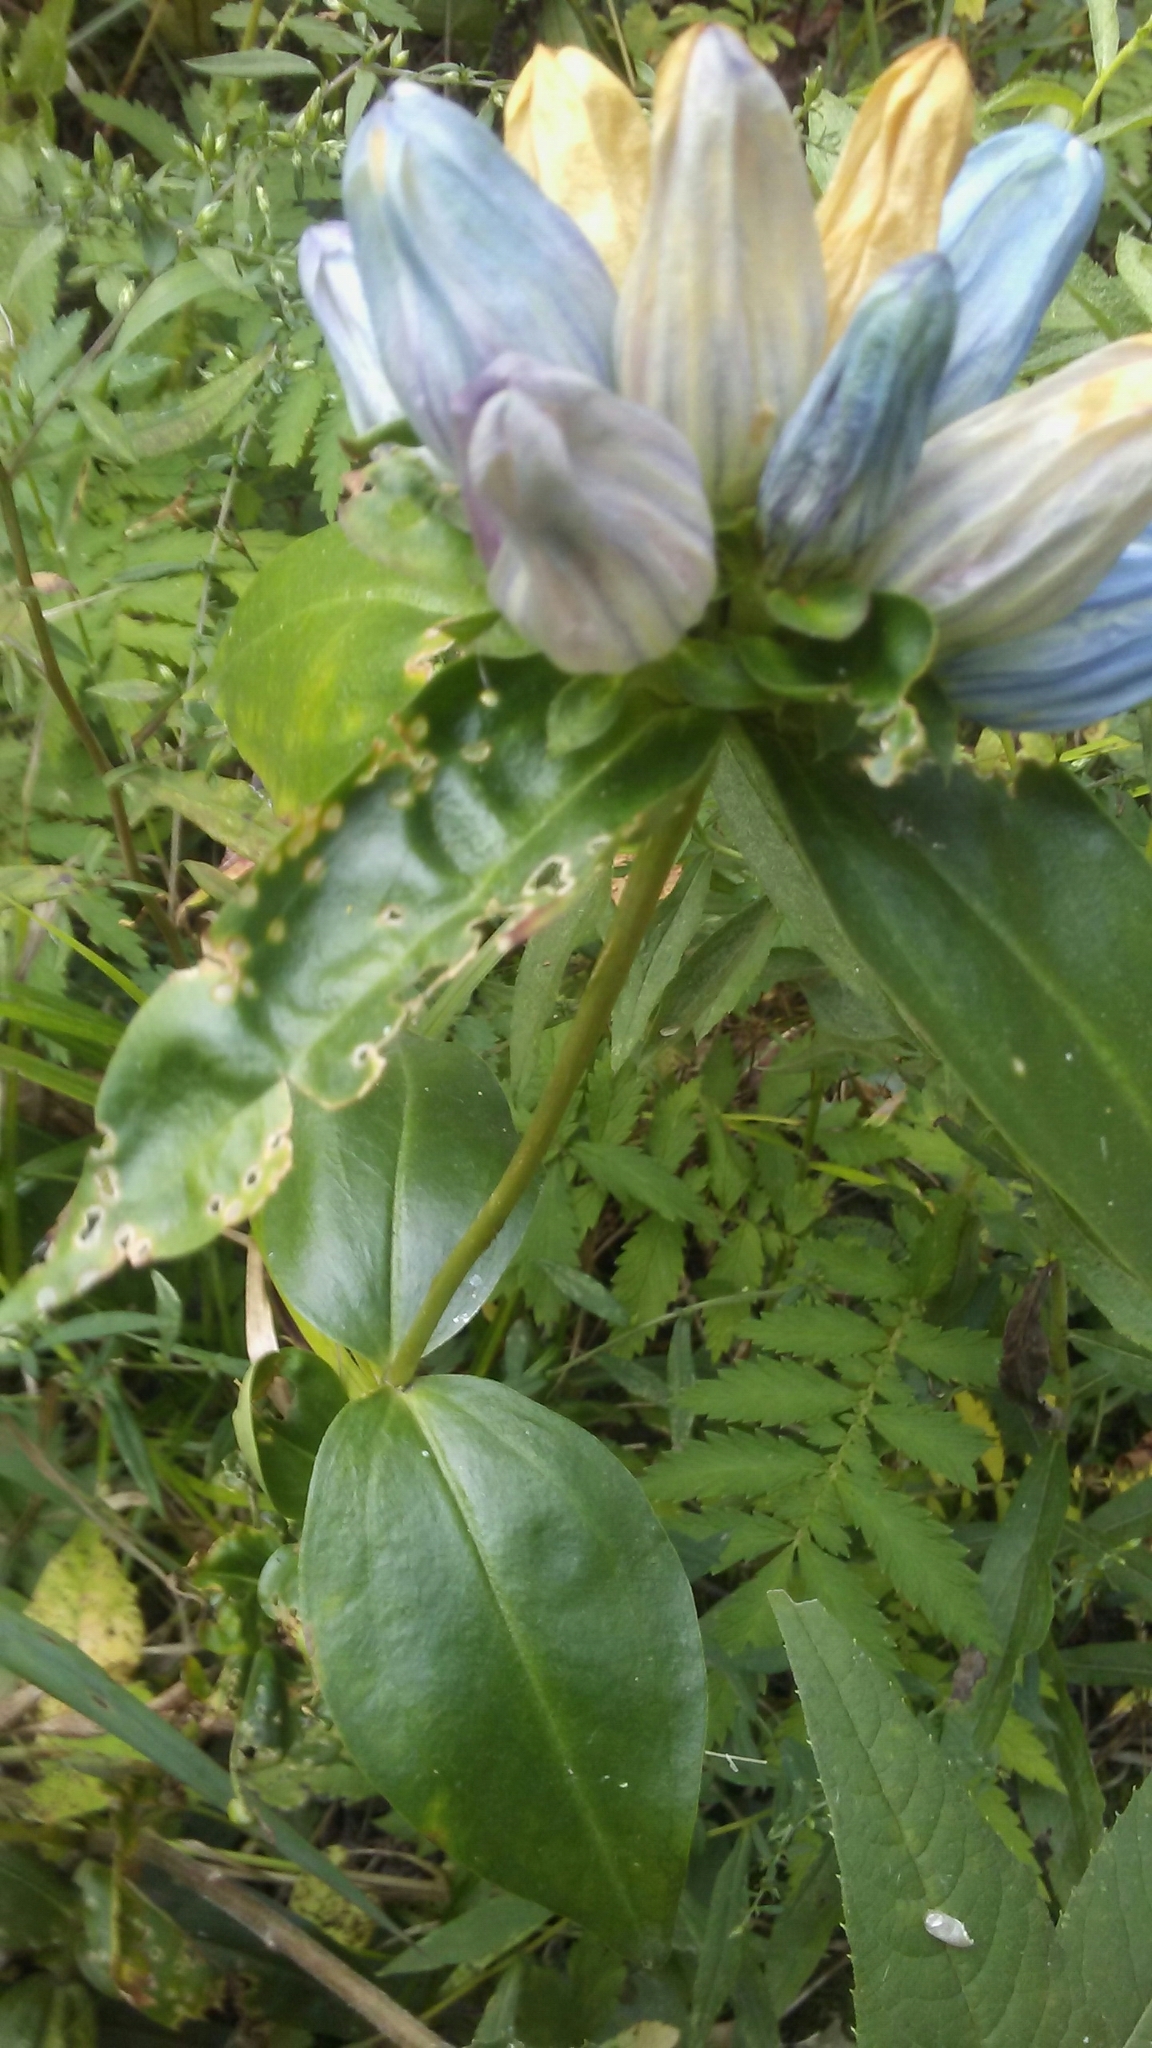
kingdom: Plantae
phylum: Tracheophyta
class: Magnoliopsida
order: Gentianales
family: Gentianaceae
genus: Gentiana
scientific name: Gentiana pallidocyanea
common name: Hybrid bottle gentian
